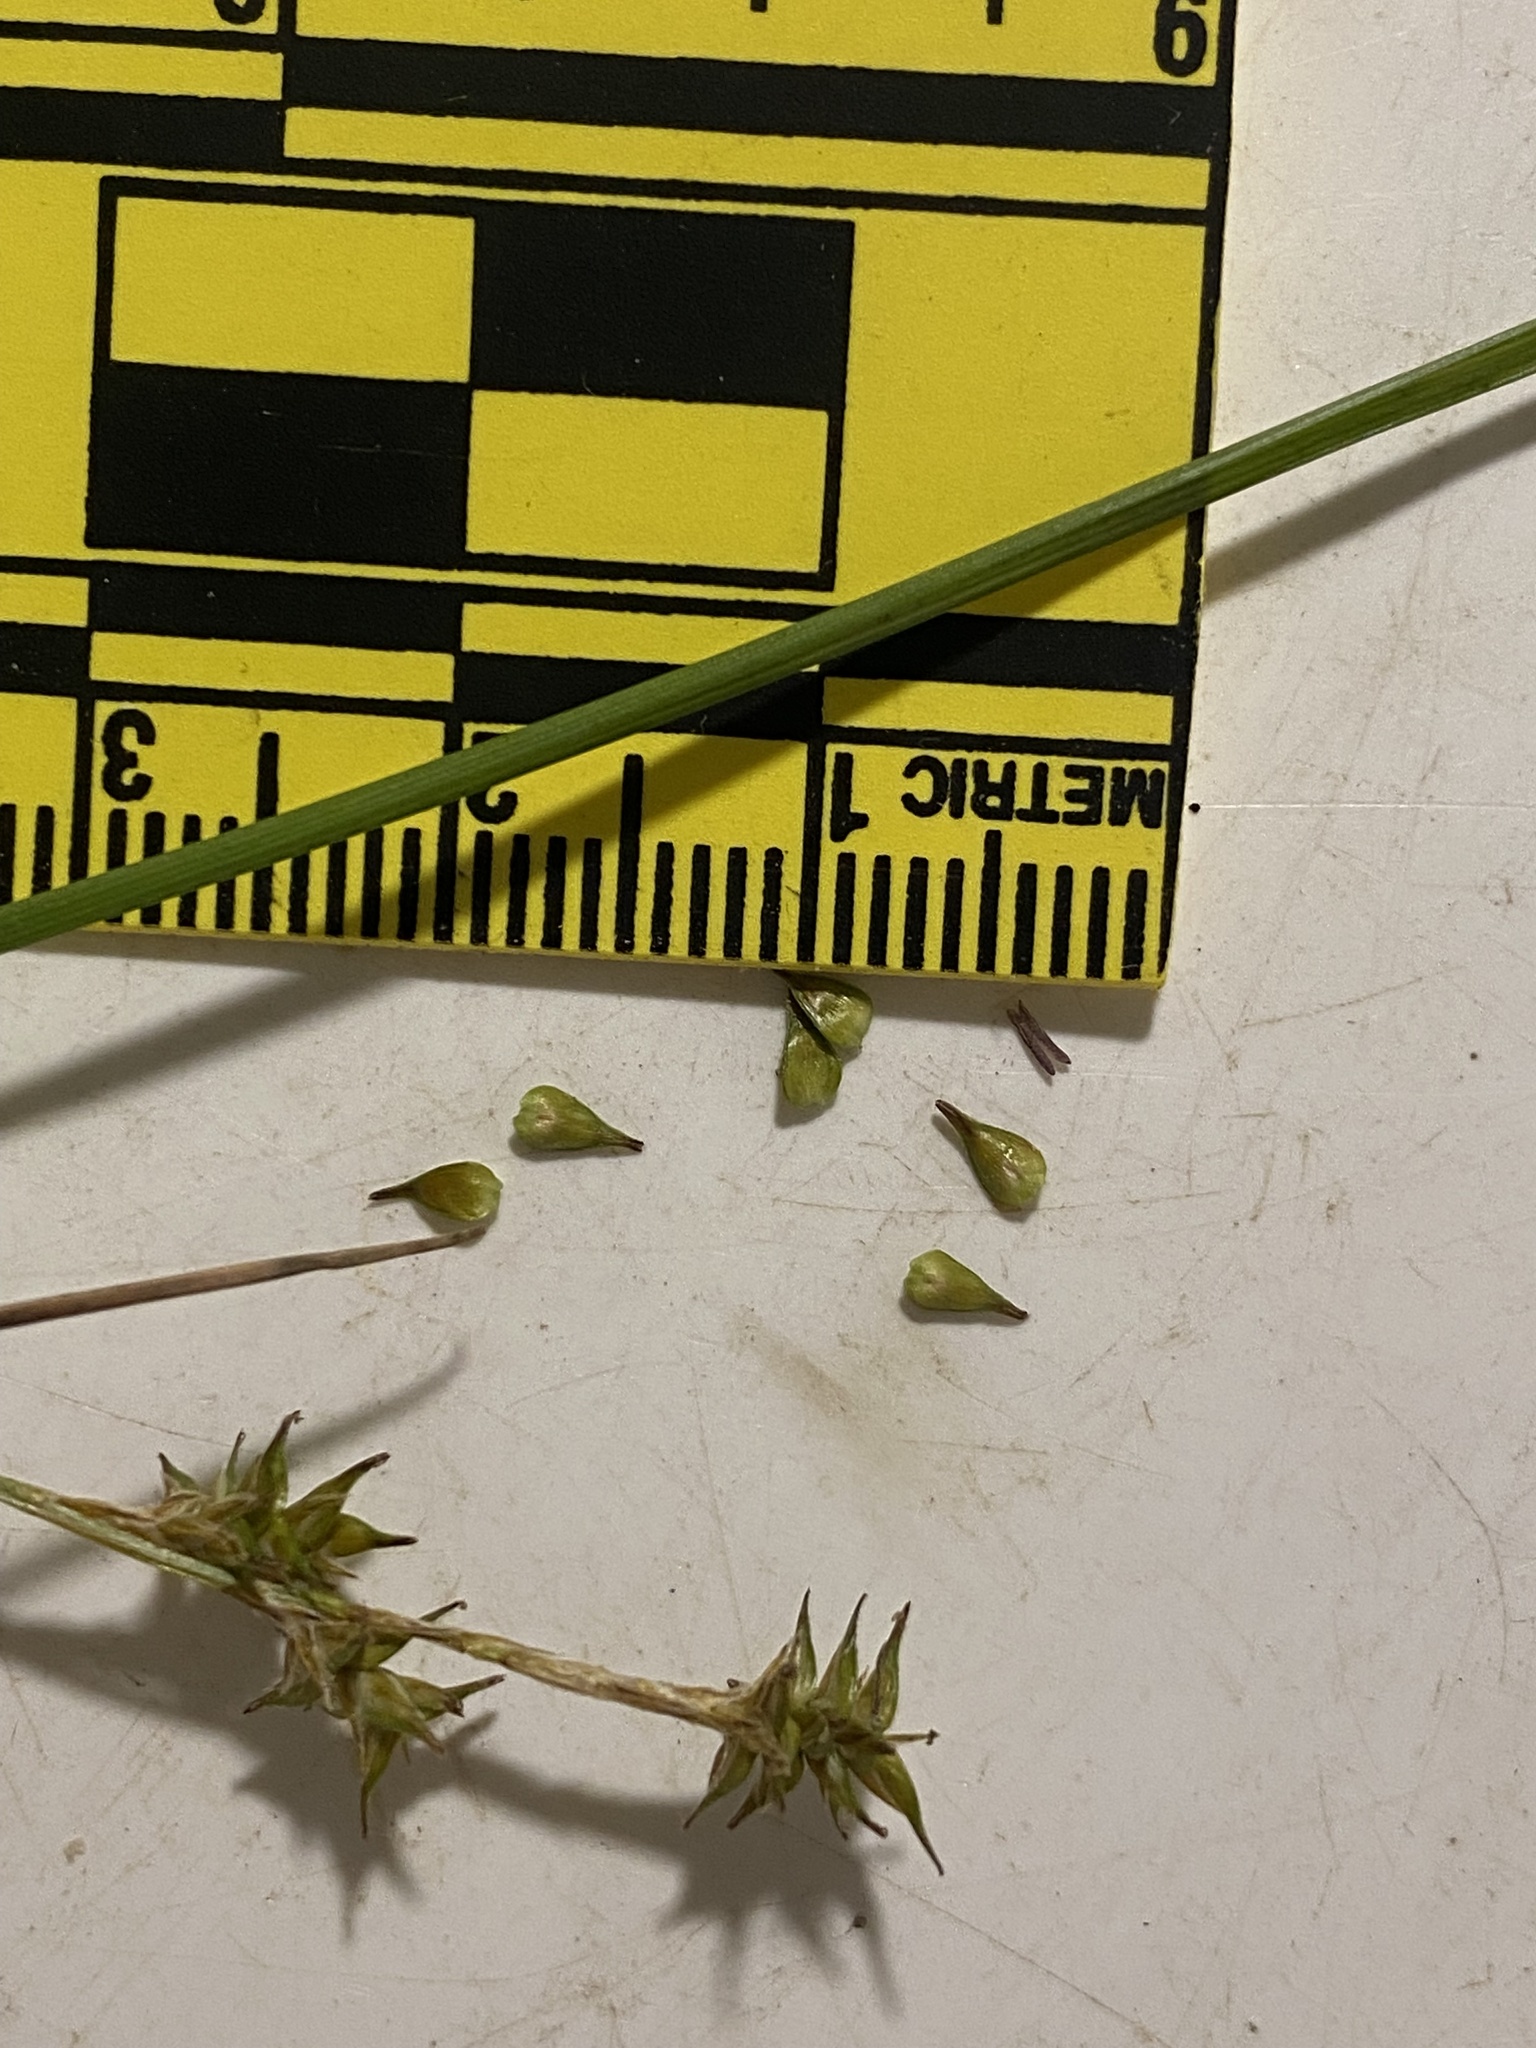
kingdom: Plantae
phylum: Tracheophyta
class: Liliopsida
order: Poales
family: Cyperaceae
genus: Carex
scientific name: Carex echinata
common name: Star sedge
